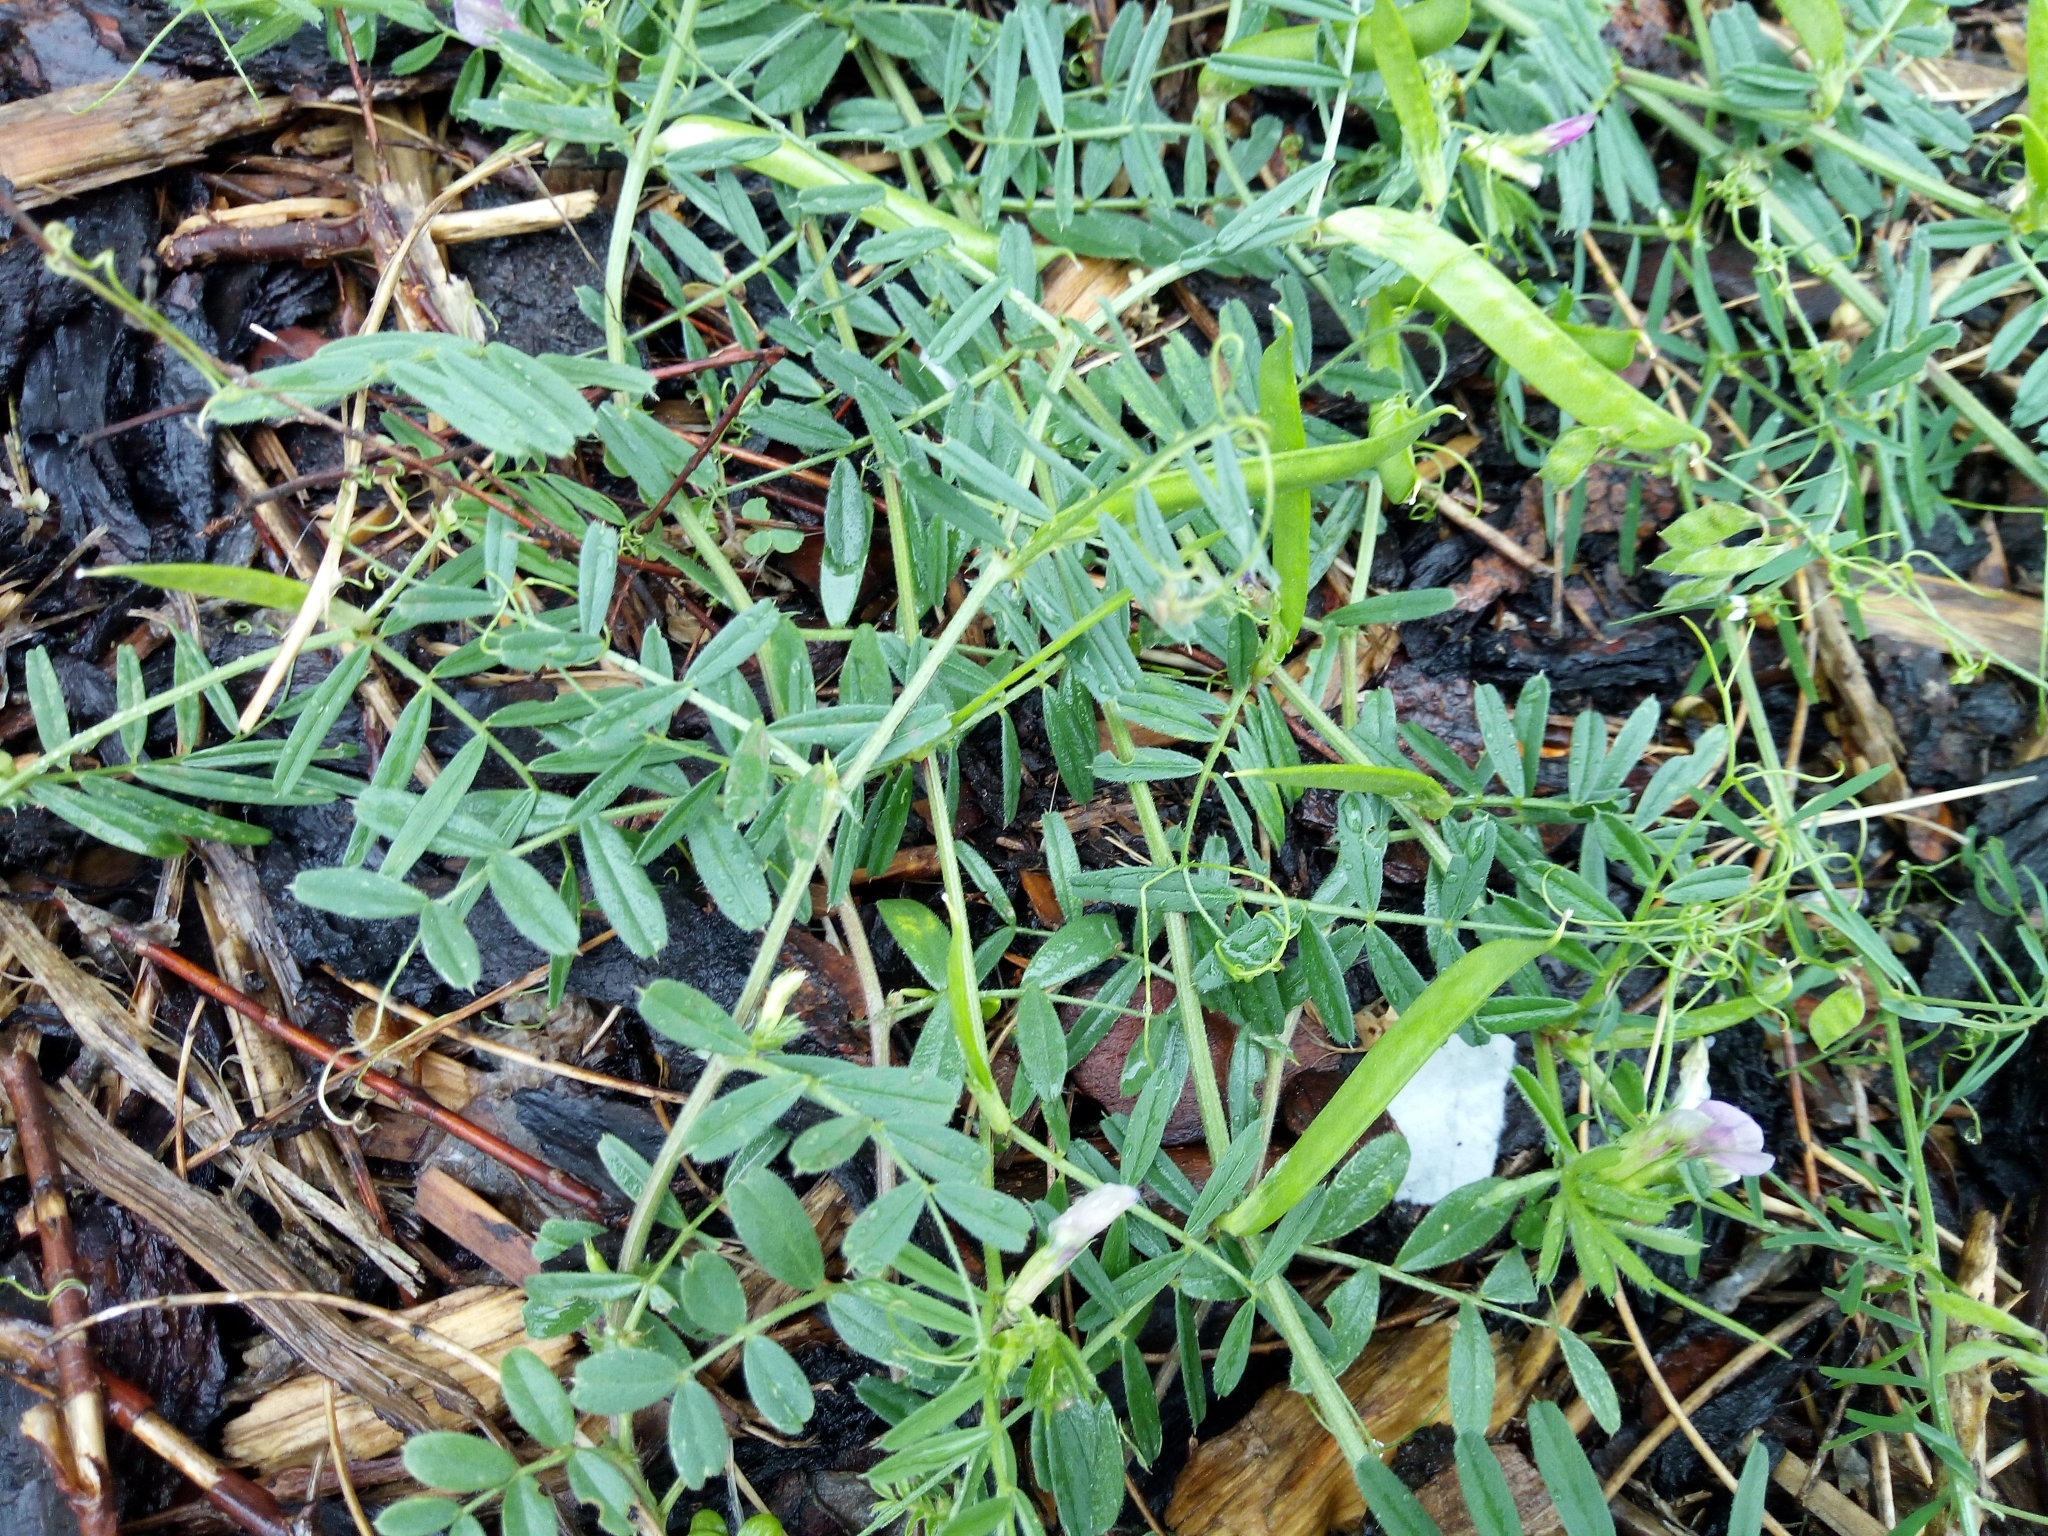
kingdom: Plantae
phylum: Tracheophyta
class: Magnoliopsida
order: Fabales
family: Fabaceae
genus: Vicia
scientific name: Vicia sativa
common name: Garden vetch
